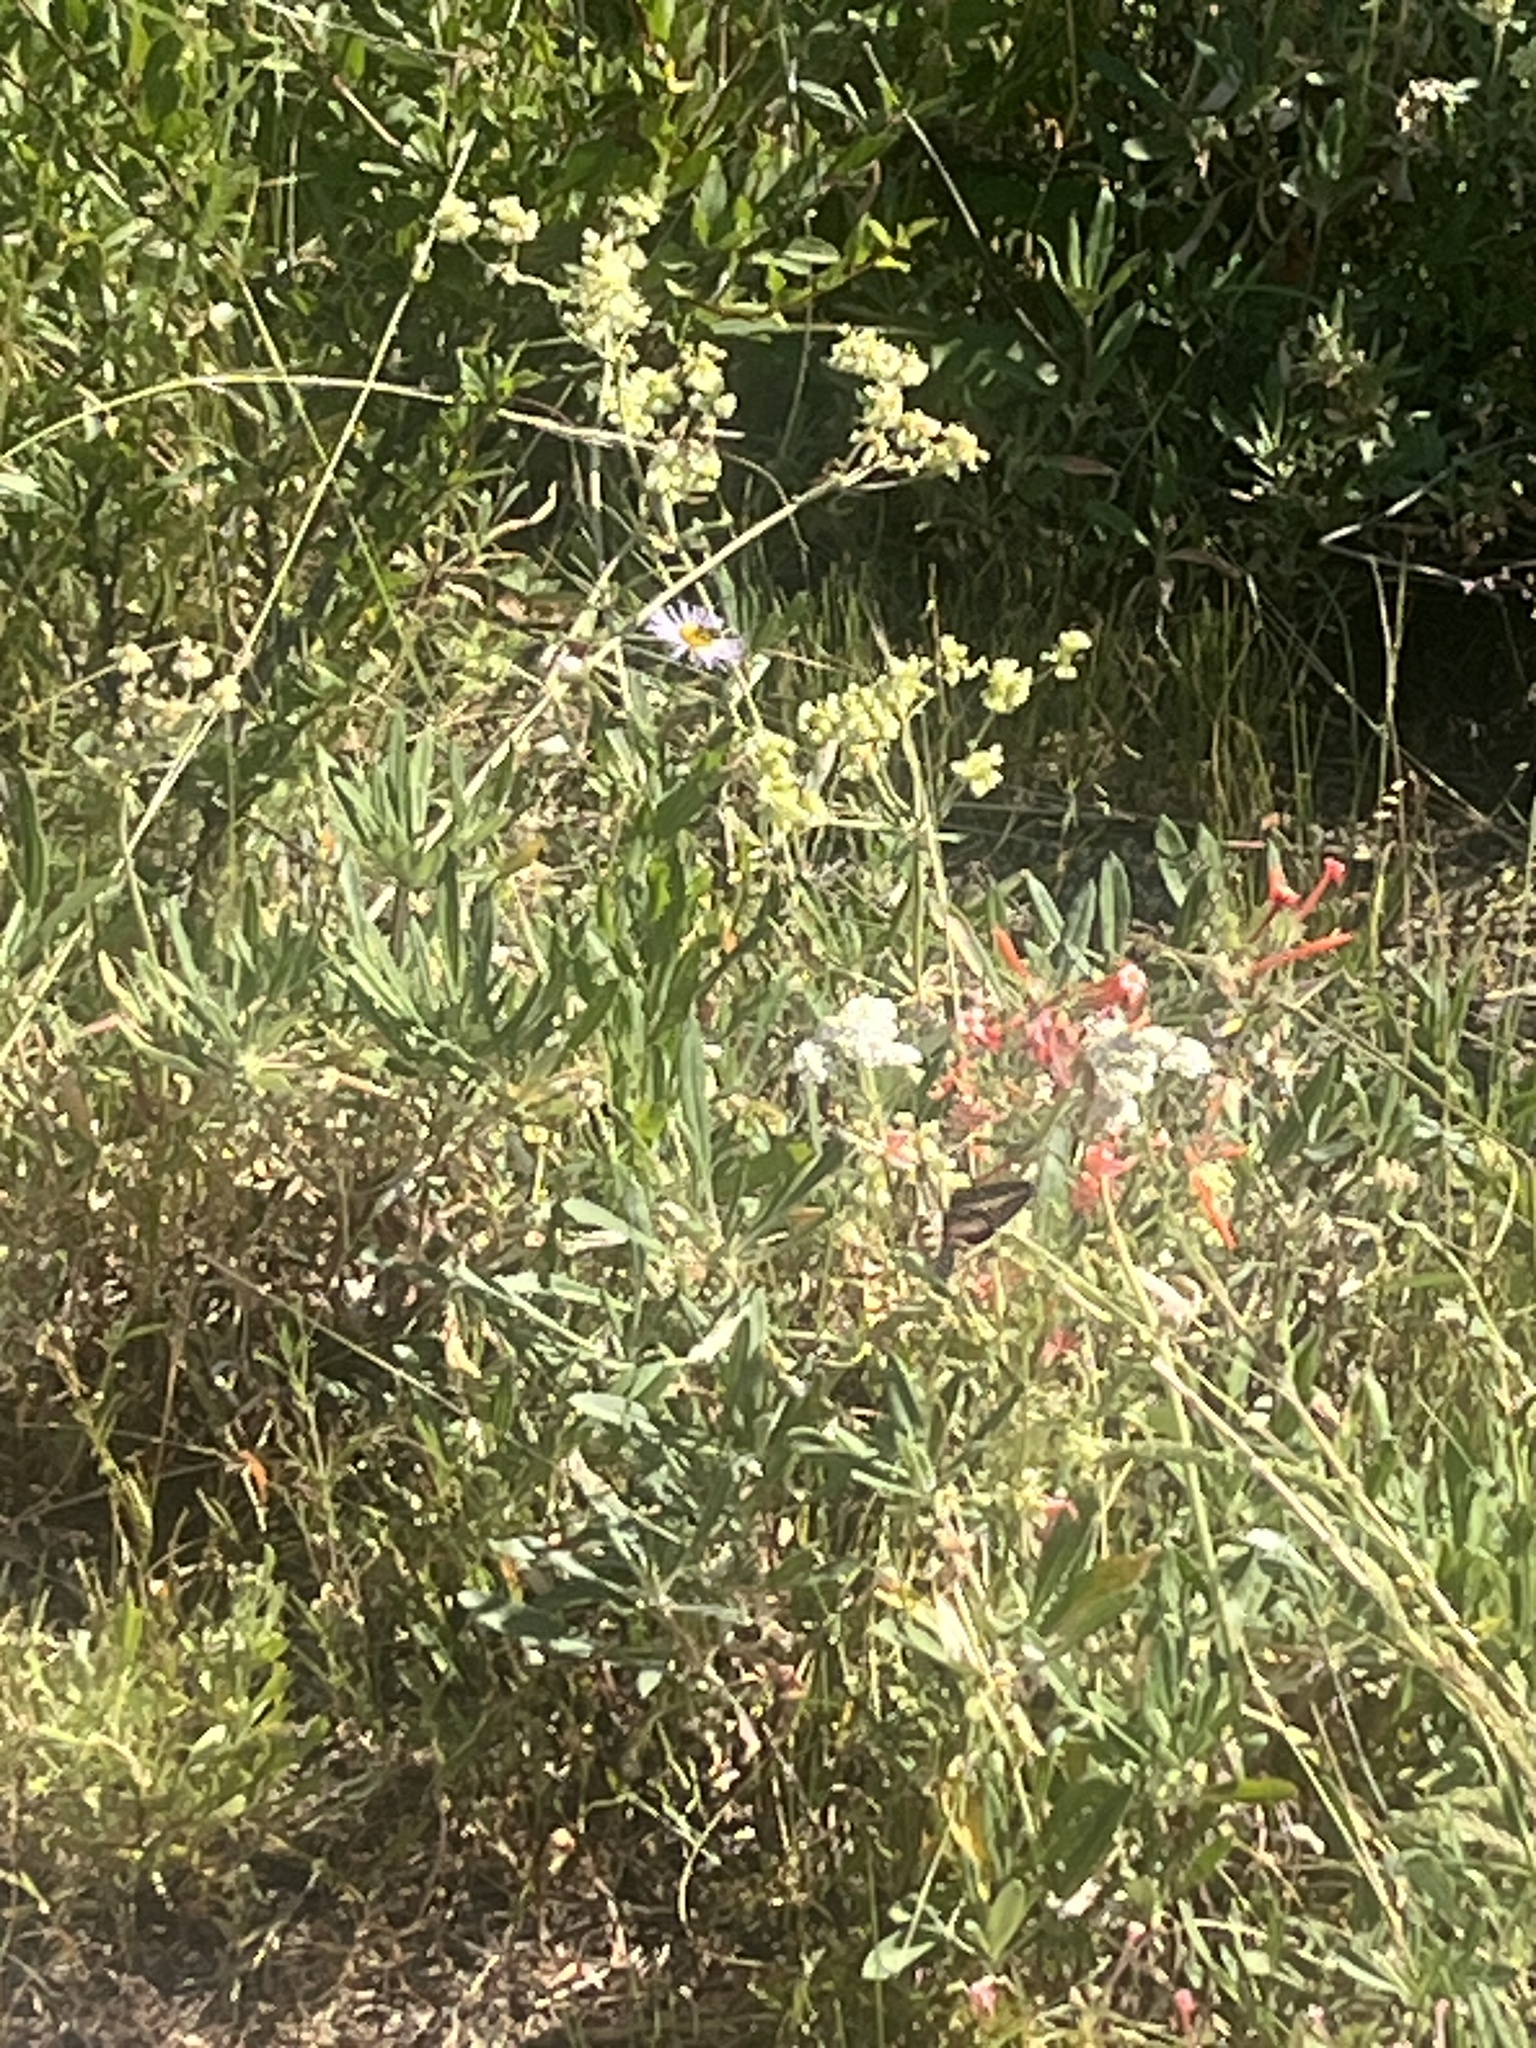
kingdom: Animalia
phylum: Arthropoda
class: Insecta
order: Lepidoptera
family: Sphingidae
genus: Hyles
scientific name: Hyles lineata
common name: White-lined sphinx
